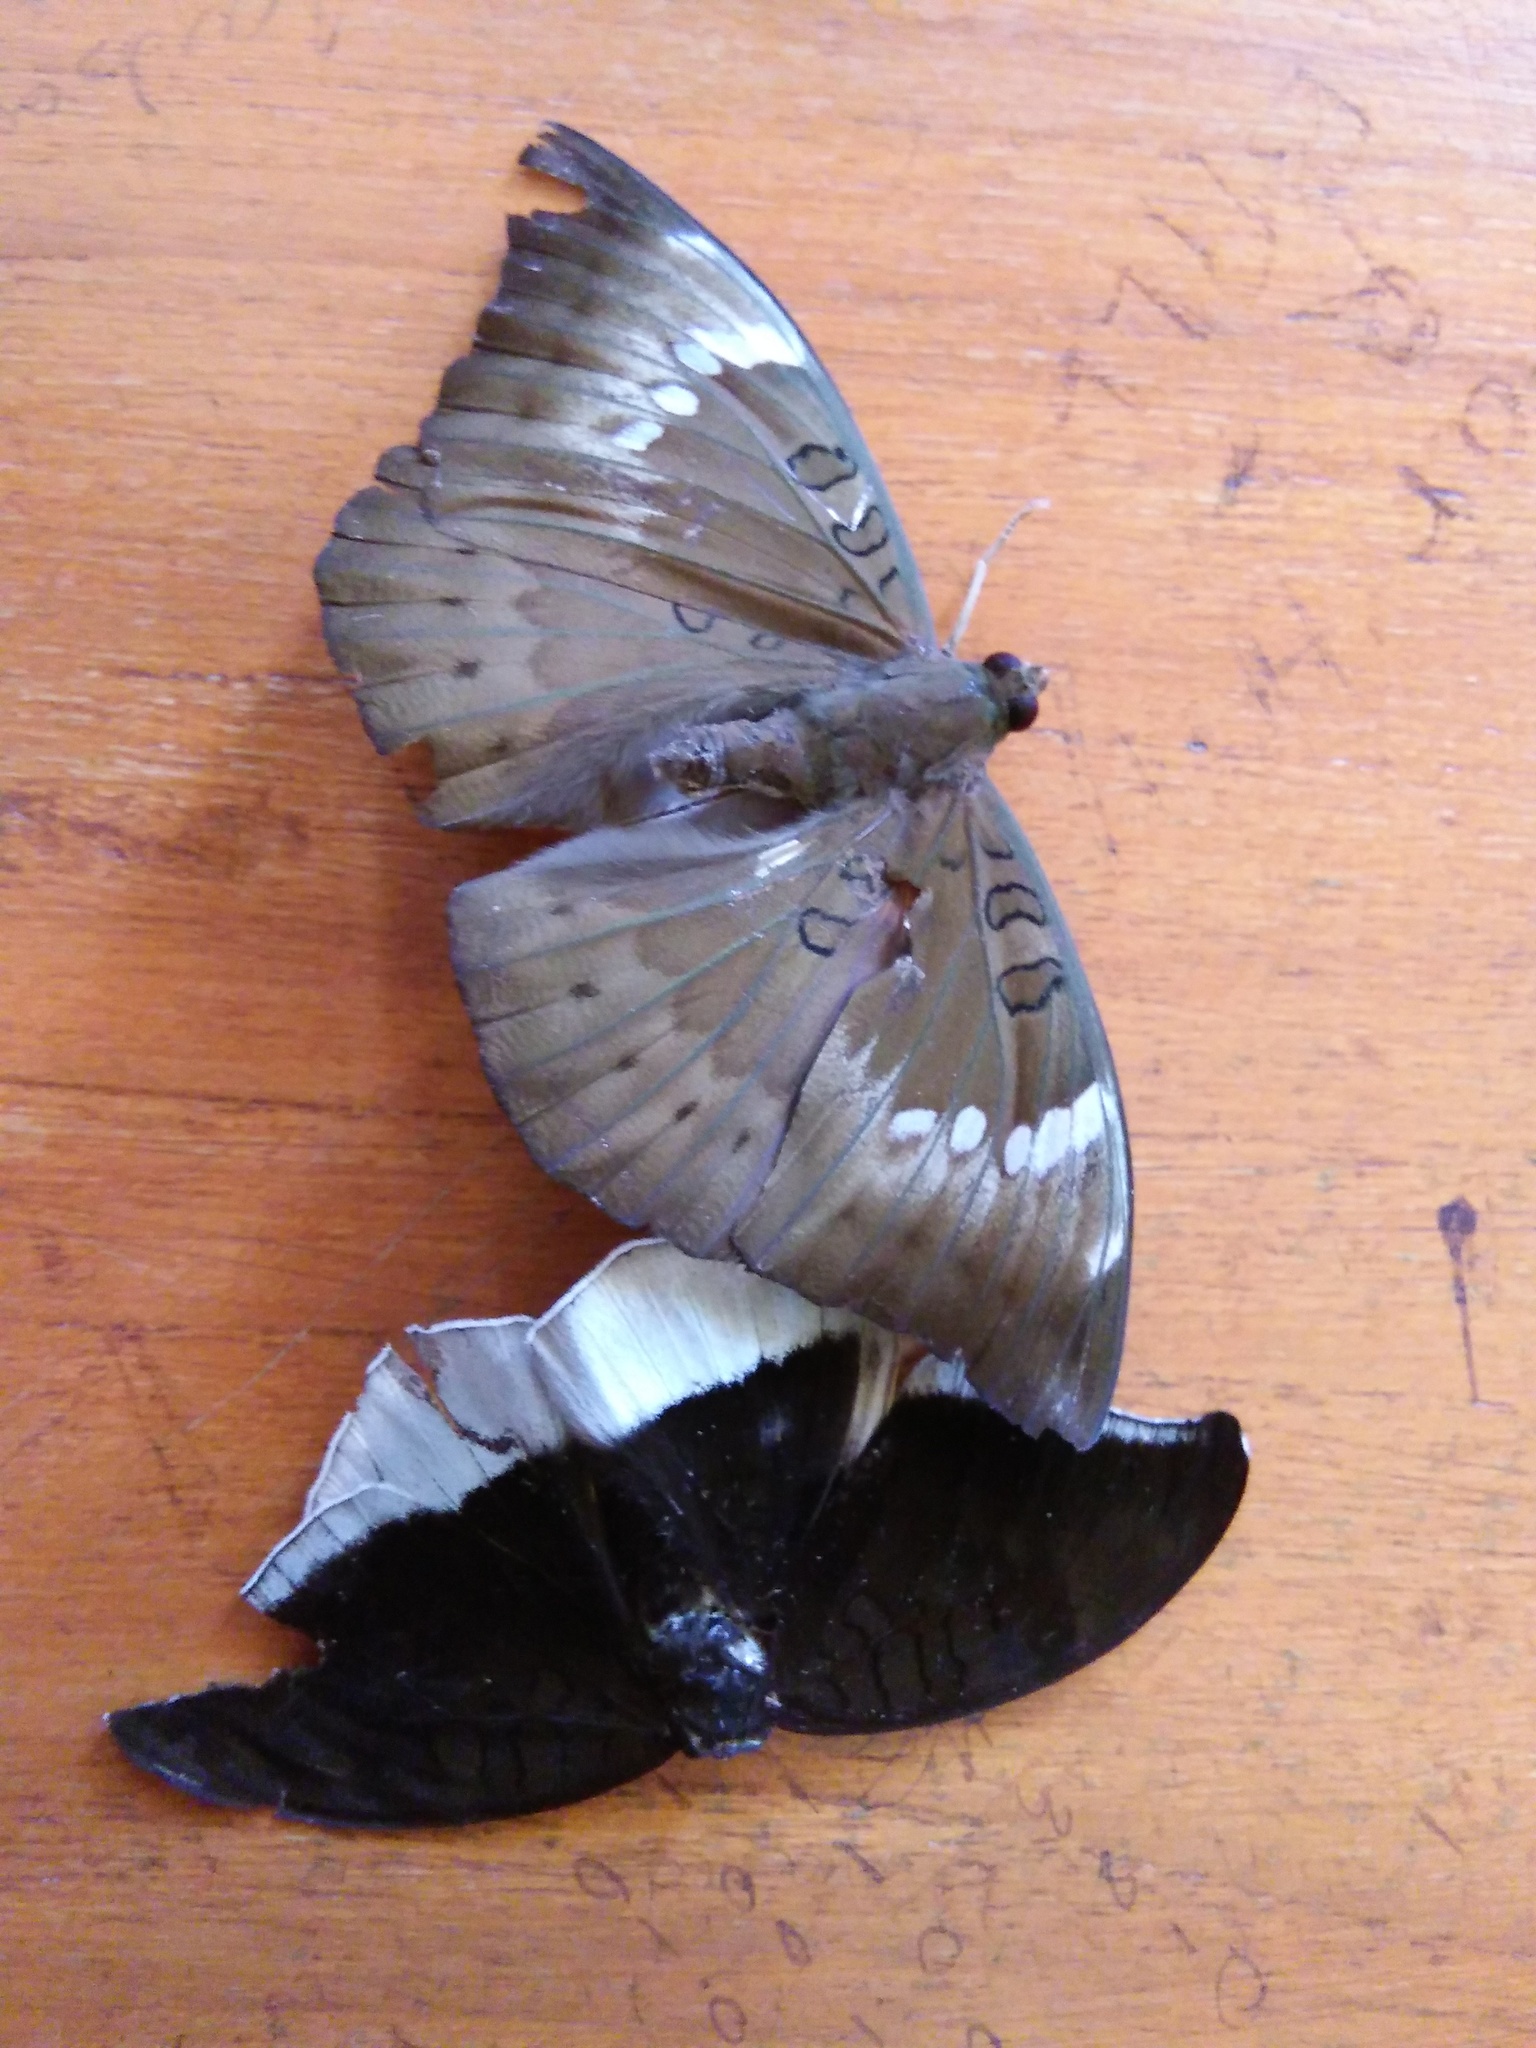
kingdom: Animalia
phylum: Arthropoda
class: Insecta
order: Lepidoptera
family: Nymphalidae
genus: Euthalia
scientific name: Euthalia aconthea
